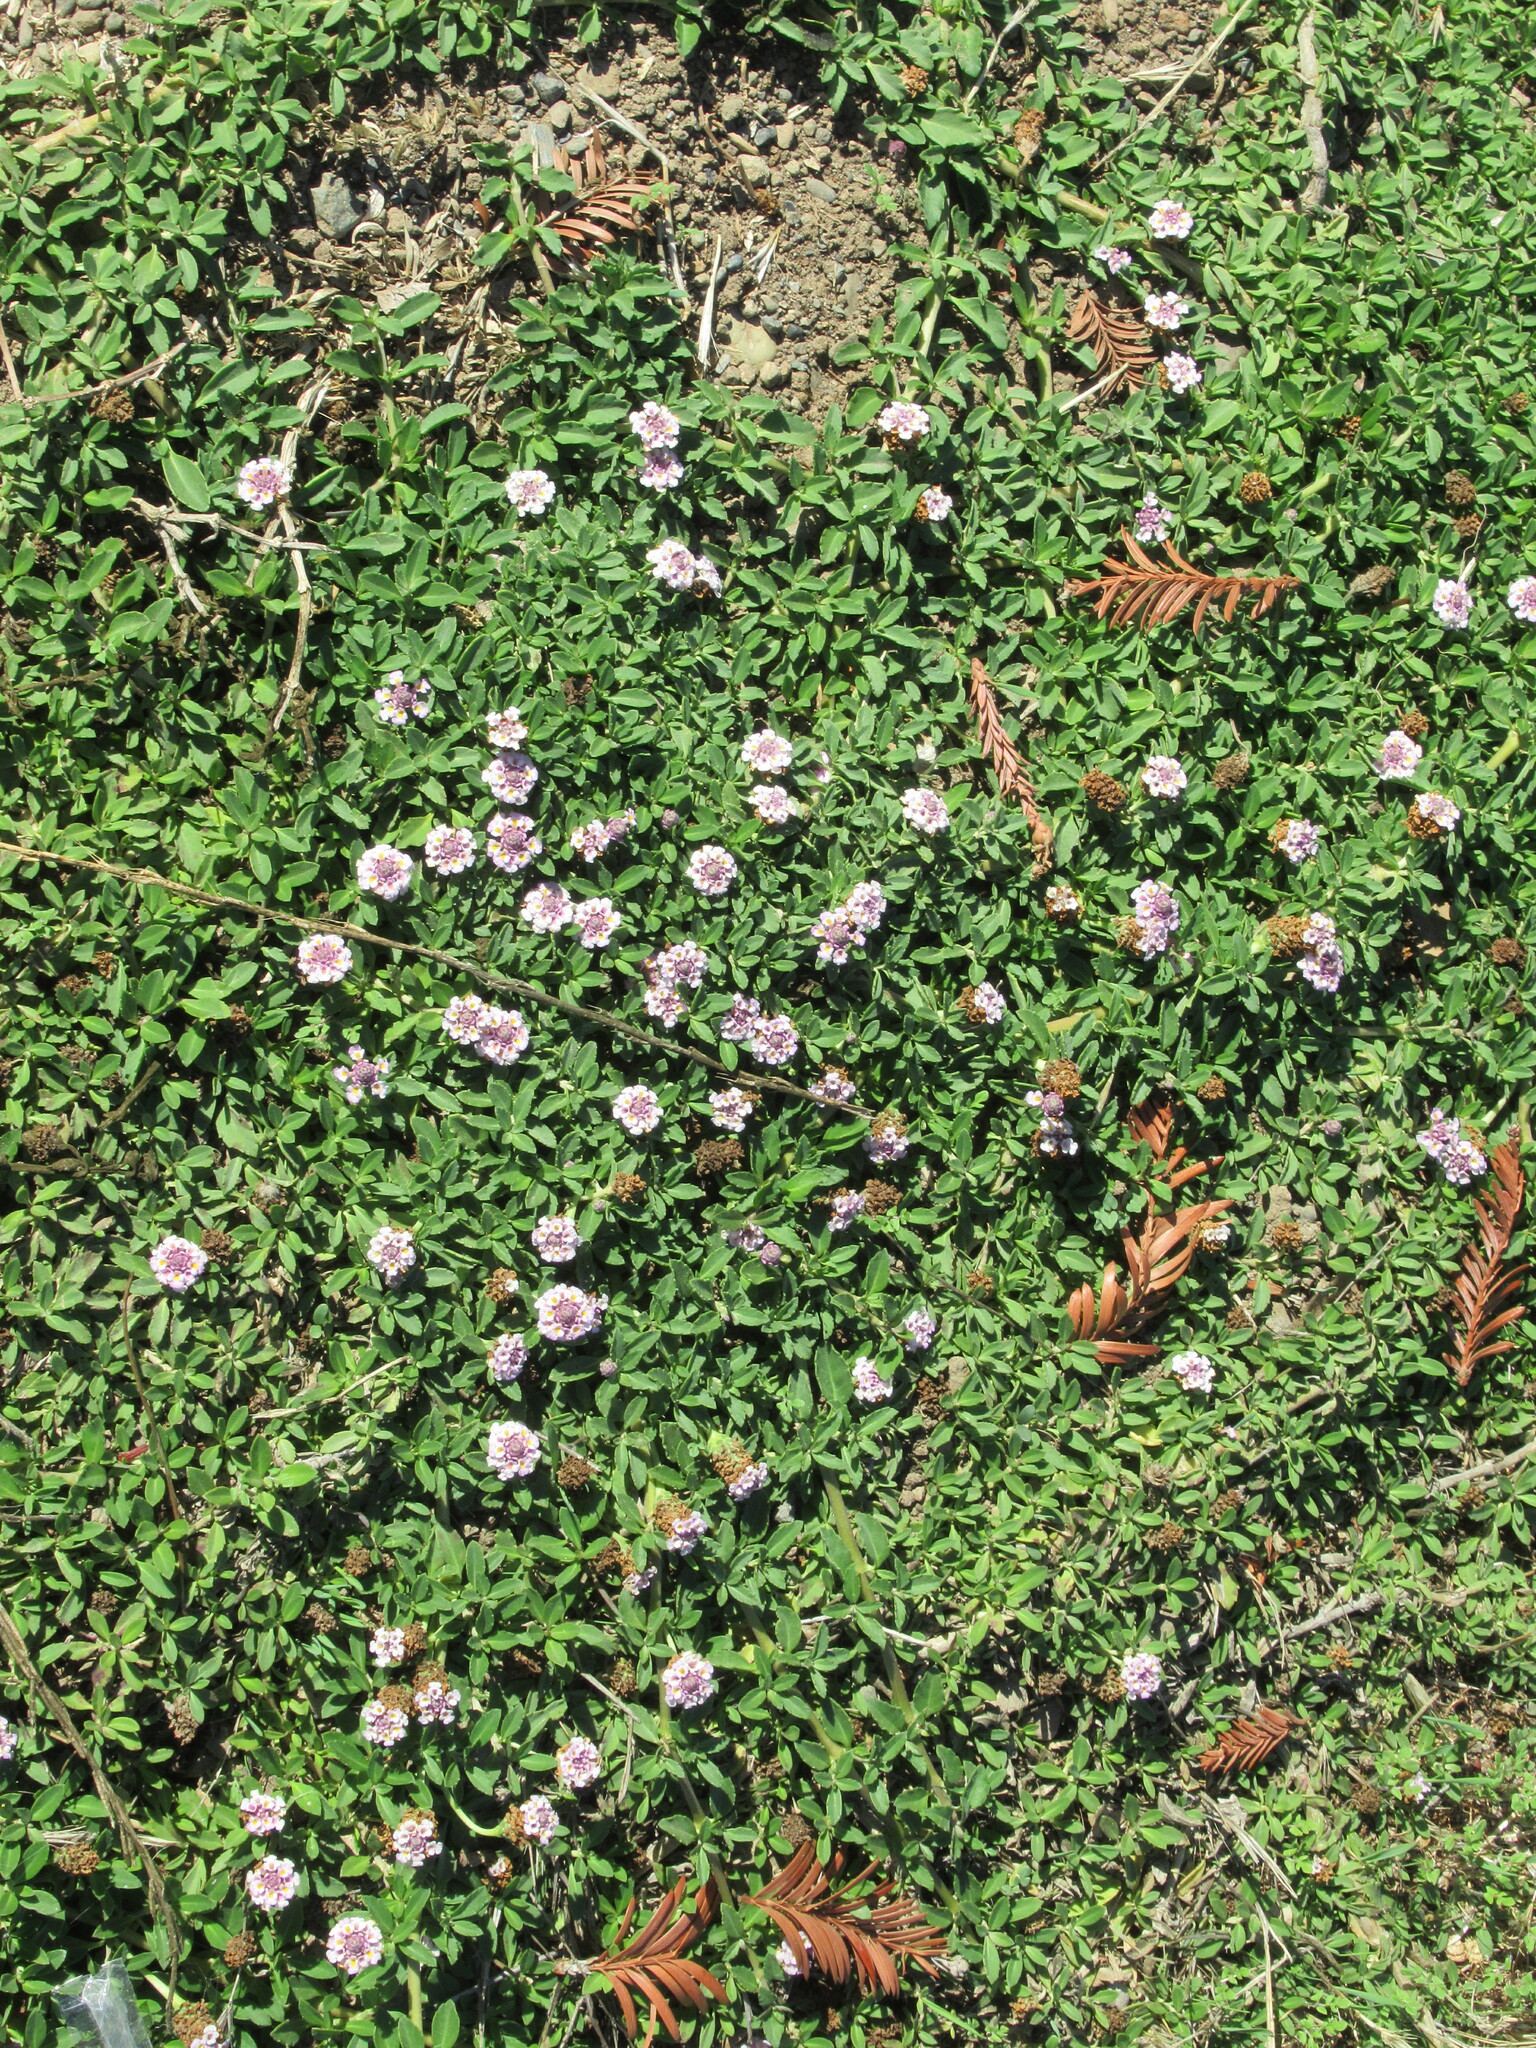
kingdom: Plantae
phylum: Tracheophyta
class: Magnoliopsida
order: Lamiales
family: Verbenaceae
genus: Phyla
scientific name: Phyla nodiflora
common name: Frogfruit
